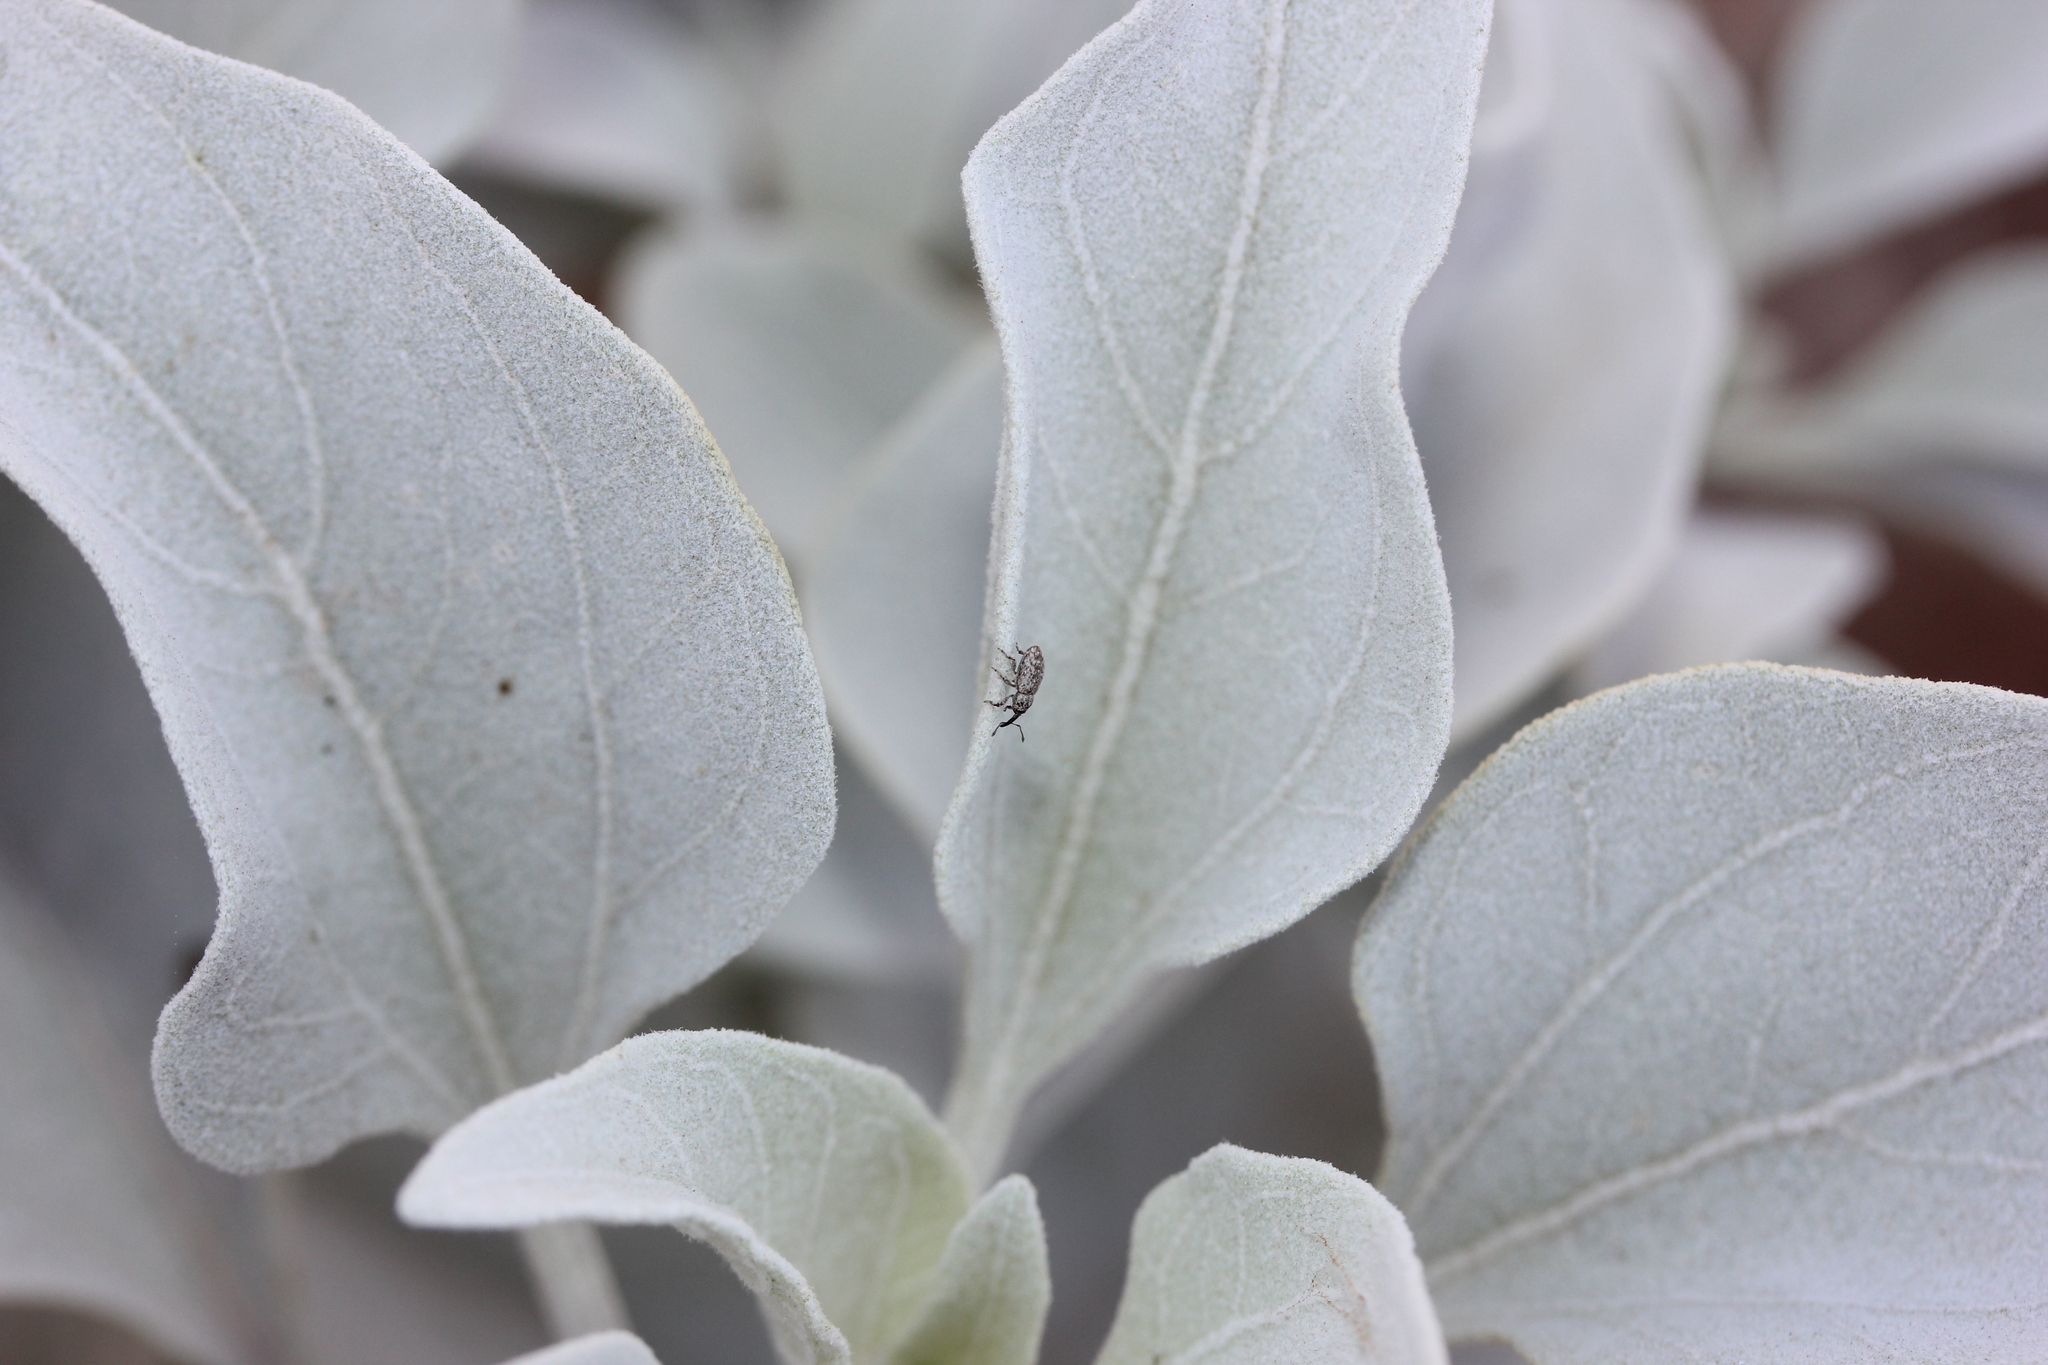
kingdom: Plantae
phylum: Tracheophyta
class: Magnoliopsida
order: Asterales
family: Asteraceae
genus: Encelia
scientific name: Encelia farinosa
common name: Brittlebush
